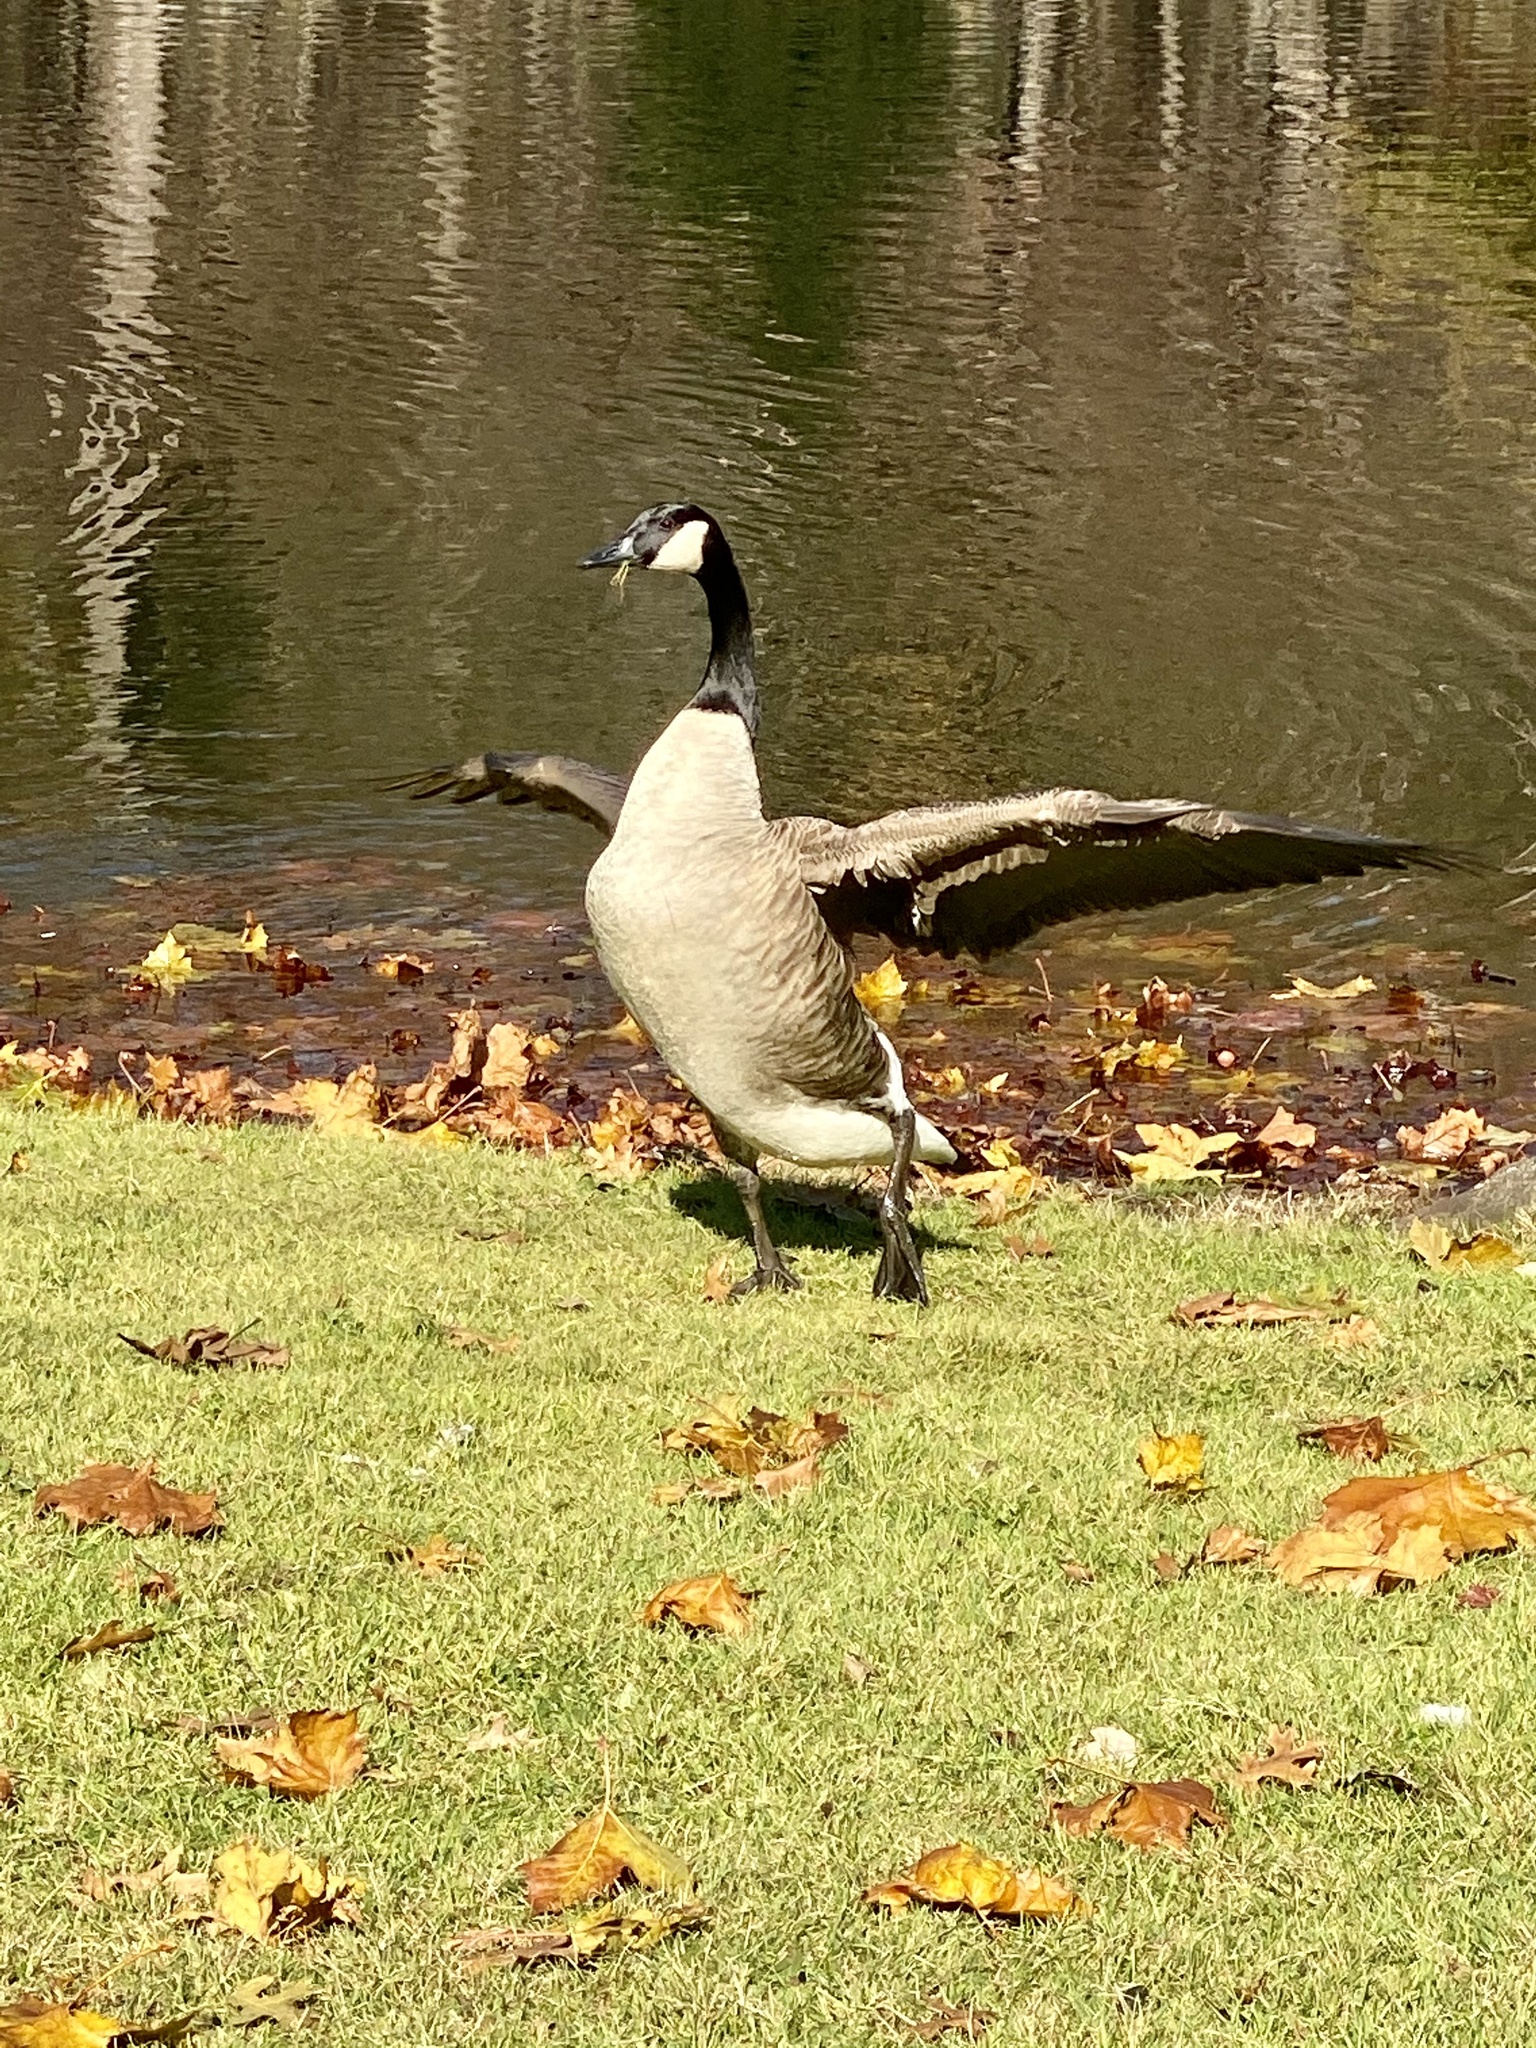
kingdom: Animalia
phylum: Chordata
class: Aves
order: Anseriformes
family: Anatidae
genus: Branta
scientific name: Branta canadensis
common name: Canada goose
